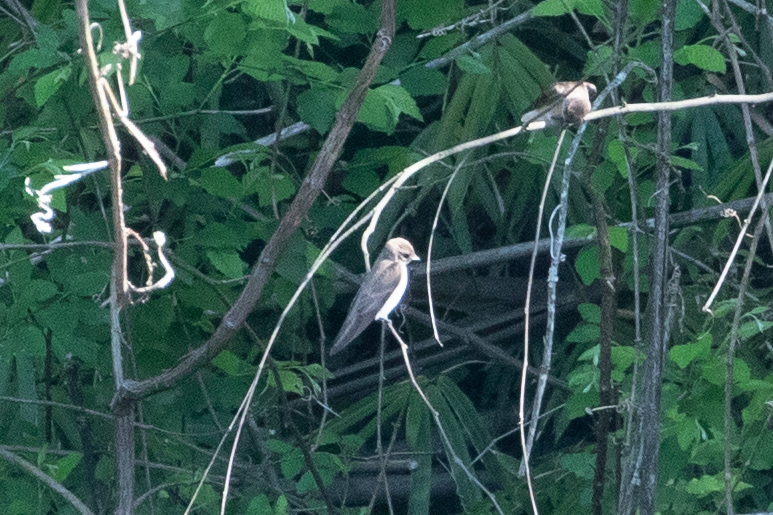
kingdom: Animalia
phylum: Chordata
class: Aves
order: Passeriformes
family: Hirundinidae
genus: Stelgidopteryx
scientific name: Stelgidopteryx serripennis
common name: Northern rough-winged swallow
